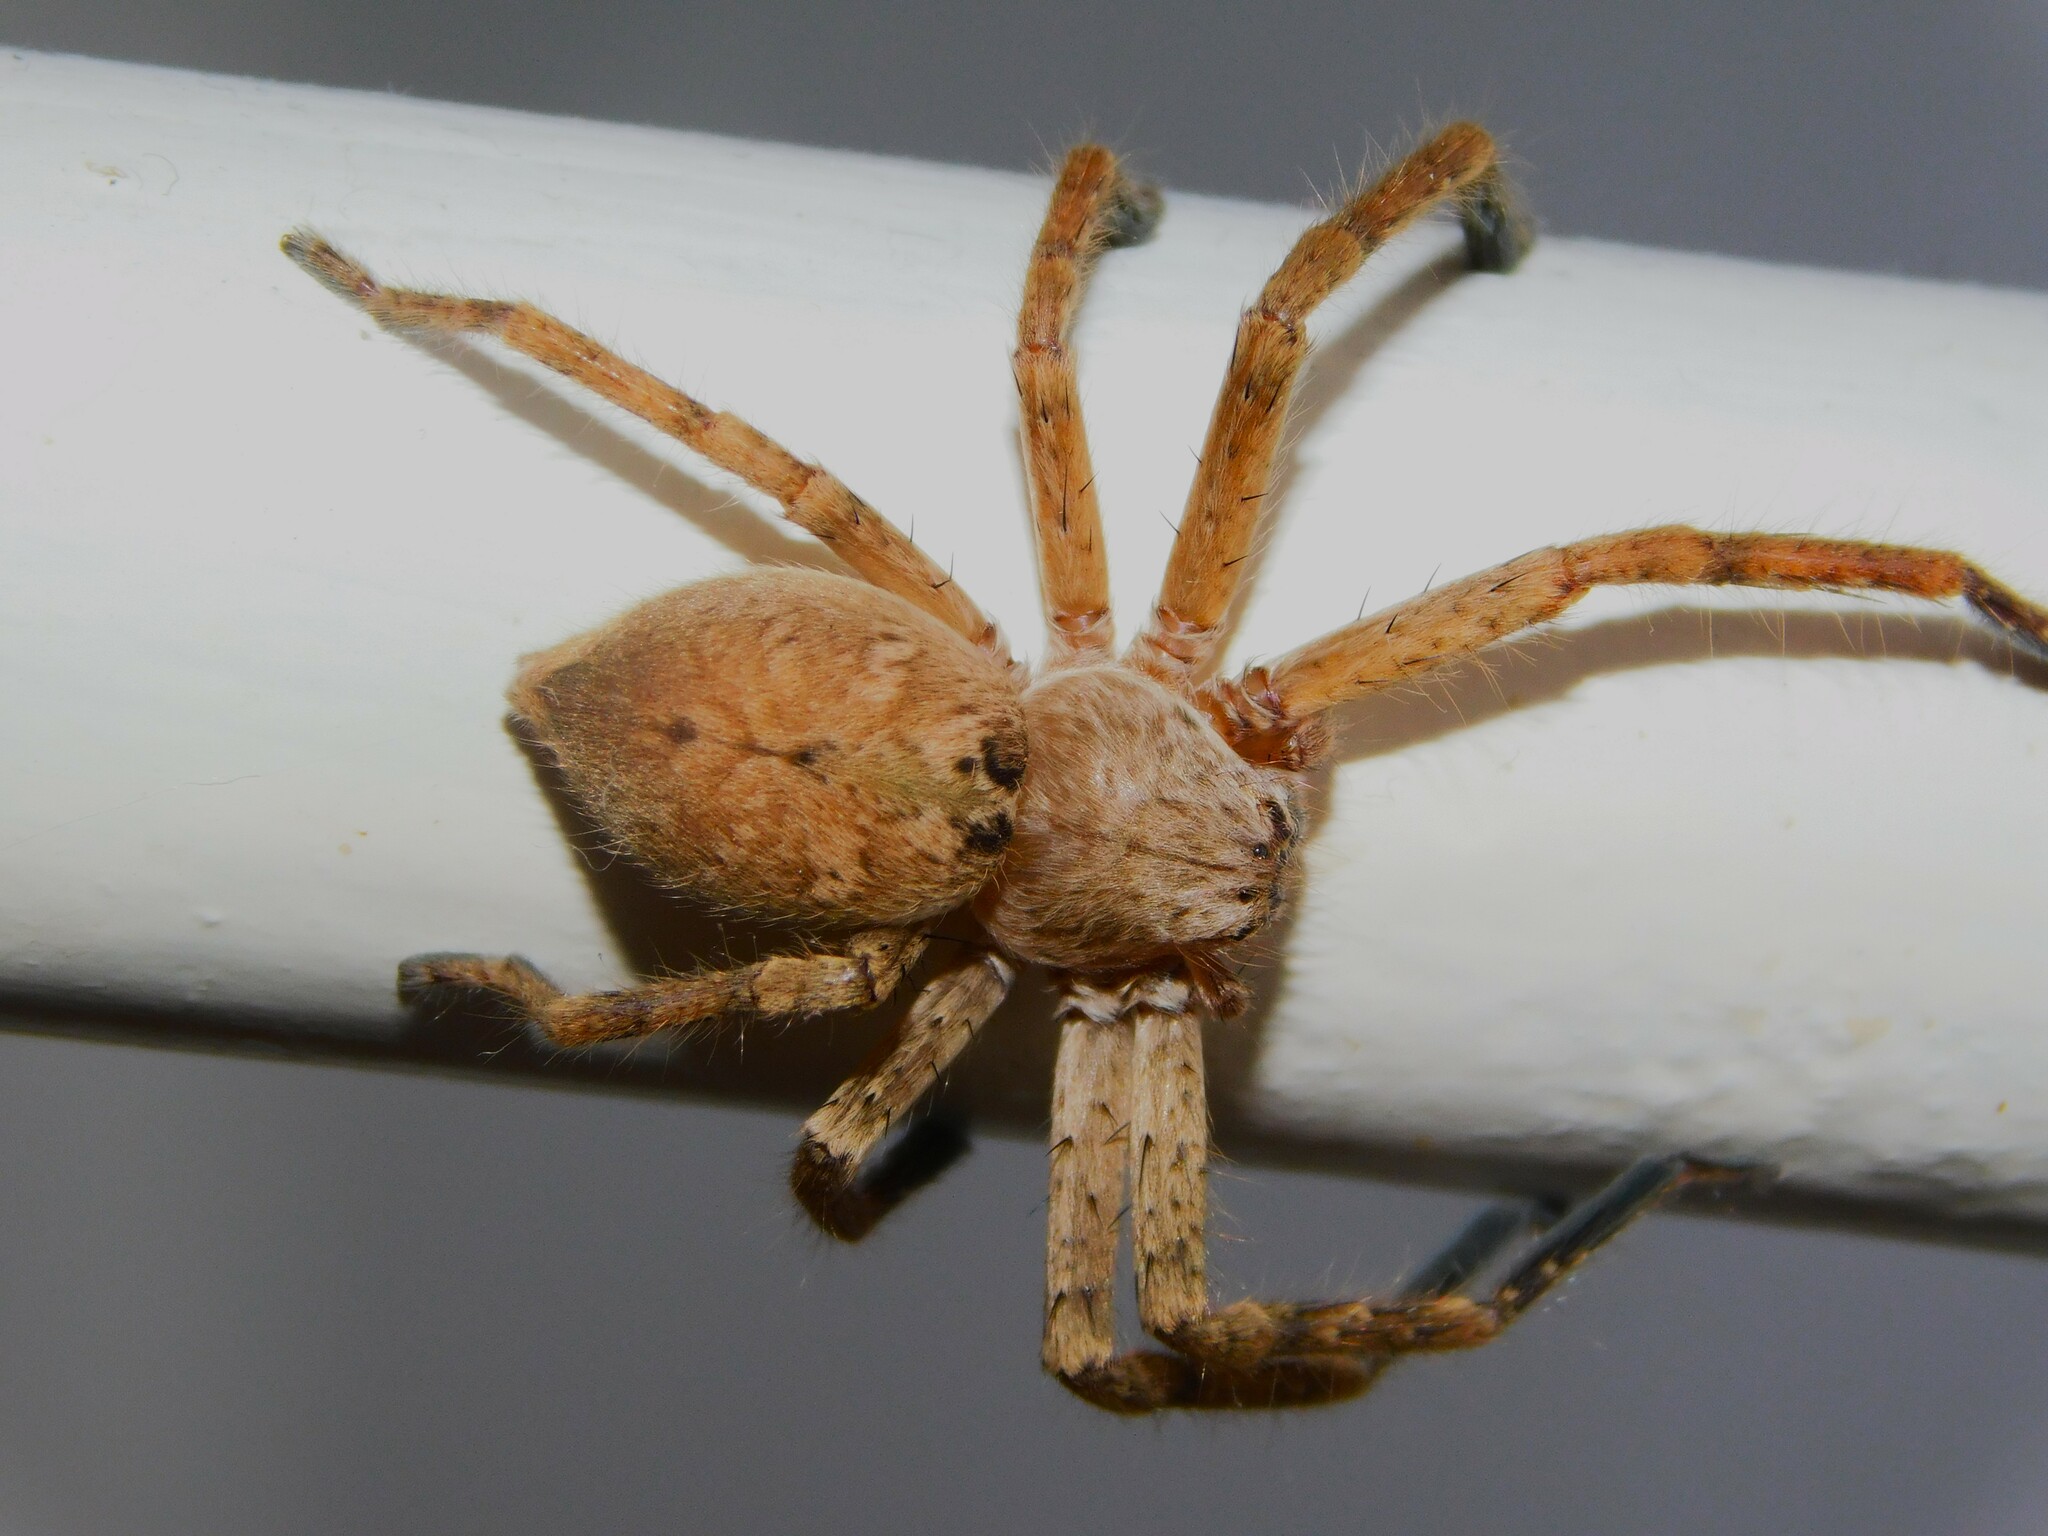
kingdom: Animalia
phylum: Arthropoda
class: Arachnida
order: Araneae
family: Sparassidae
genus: Polybetes
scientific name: Polybetes rapidus
